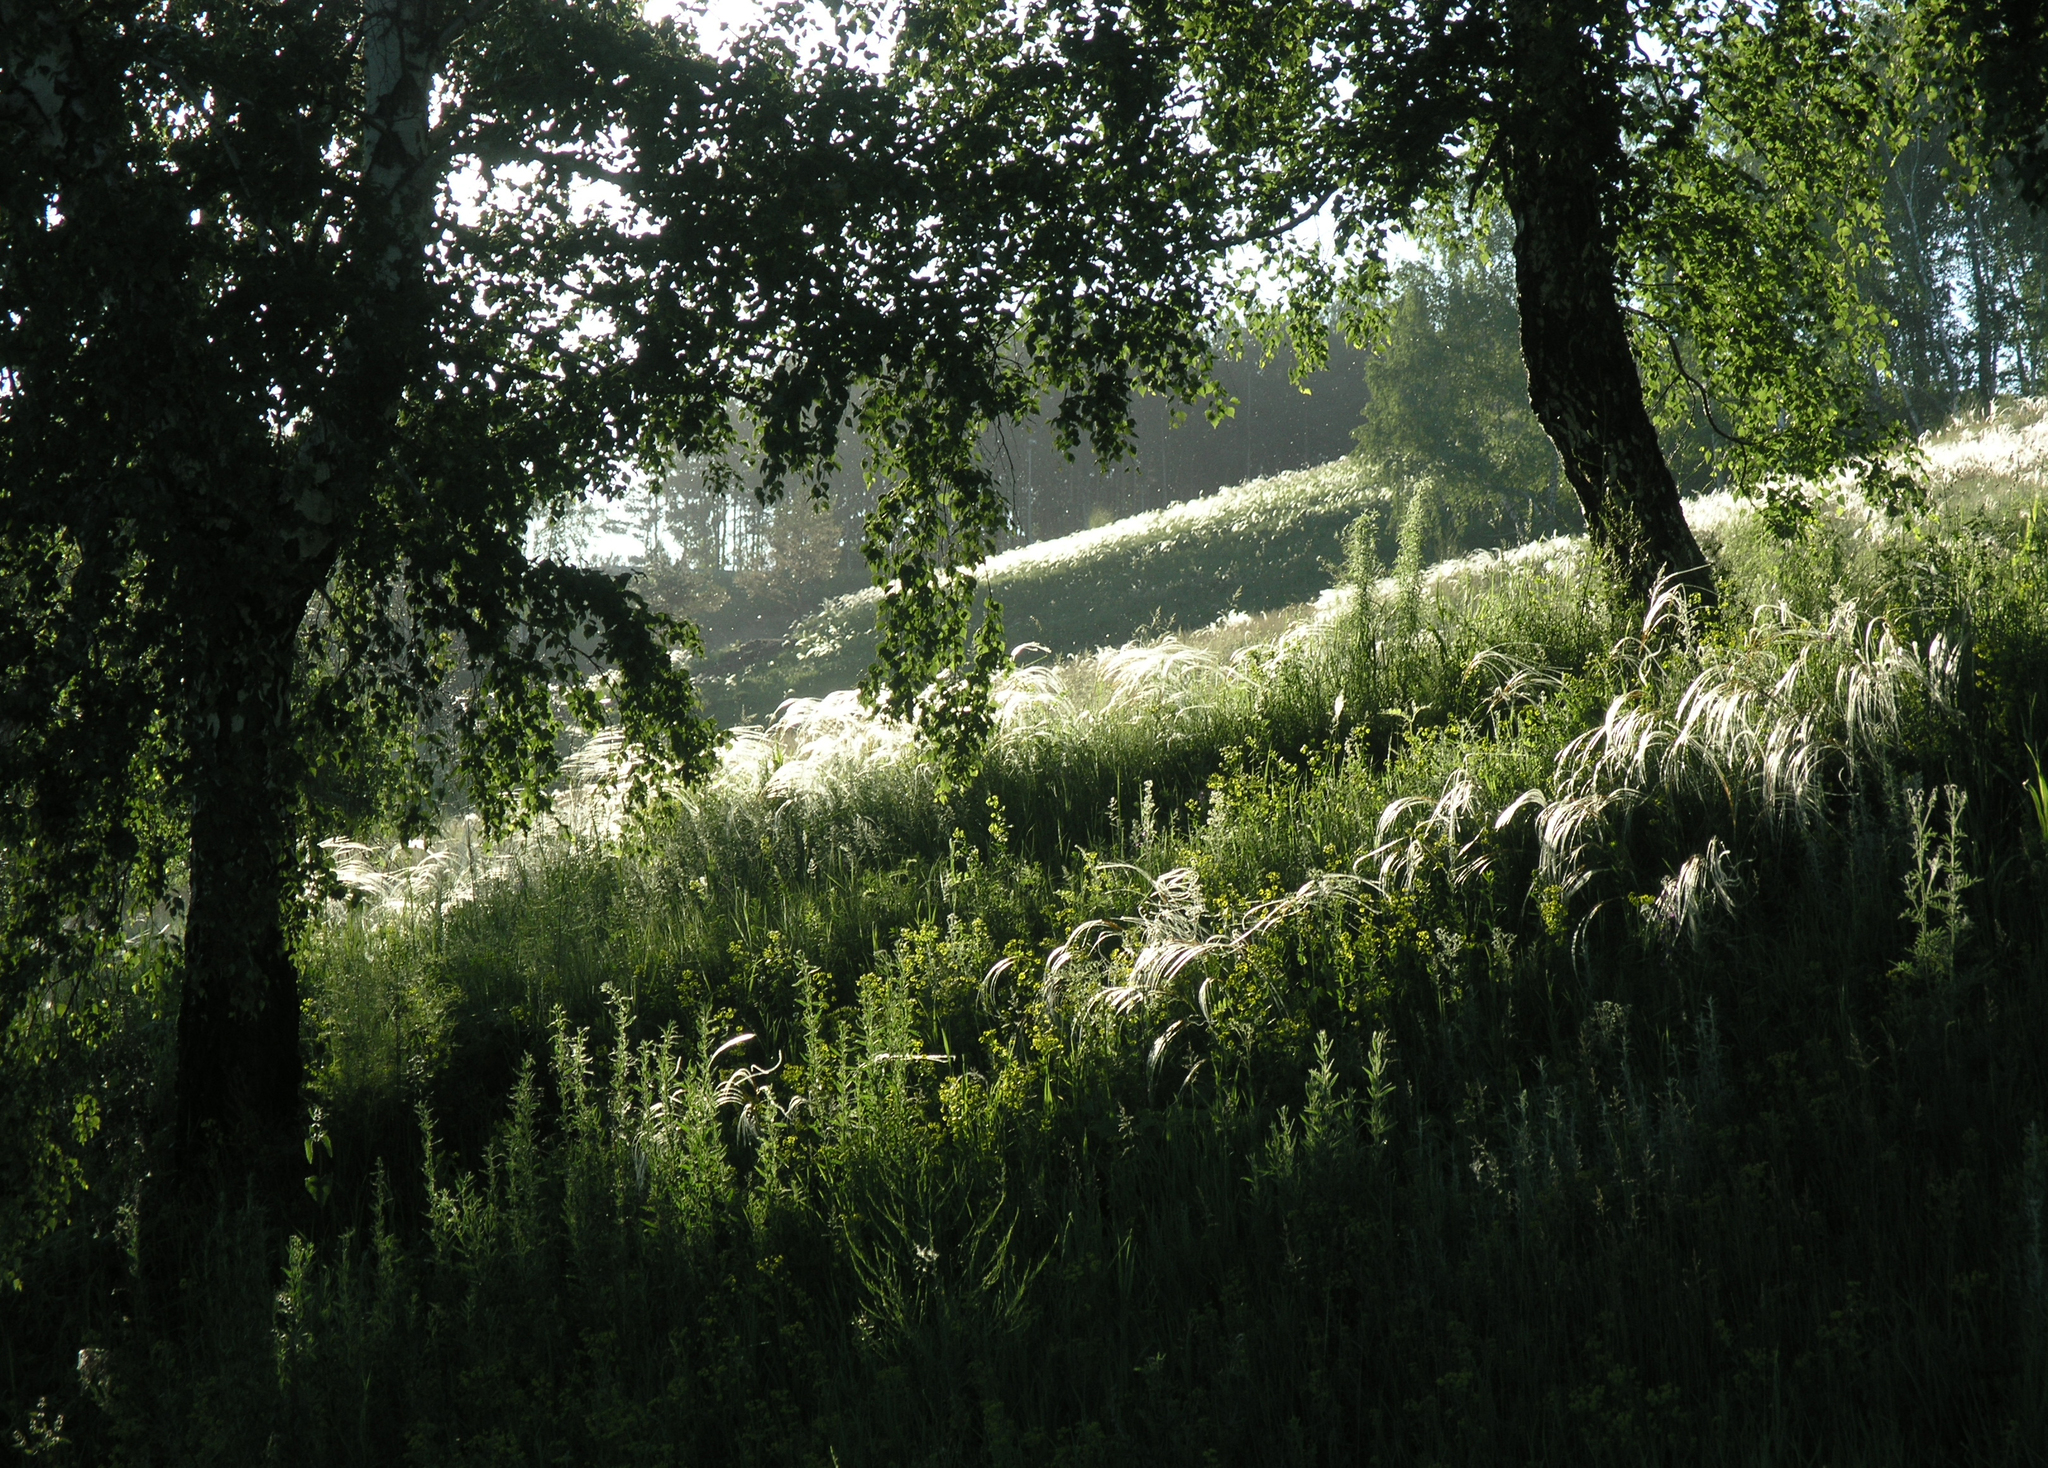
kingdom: Plantae
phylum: Tracheophyta
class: Liliopsida
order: Poales
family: Poaceae
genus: Stipa
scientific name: Stipa pennata
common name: European feather grass
